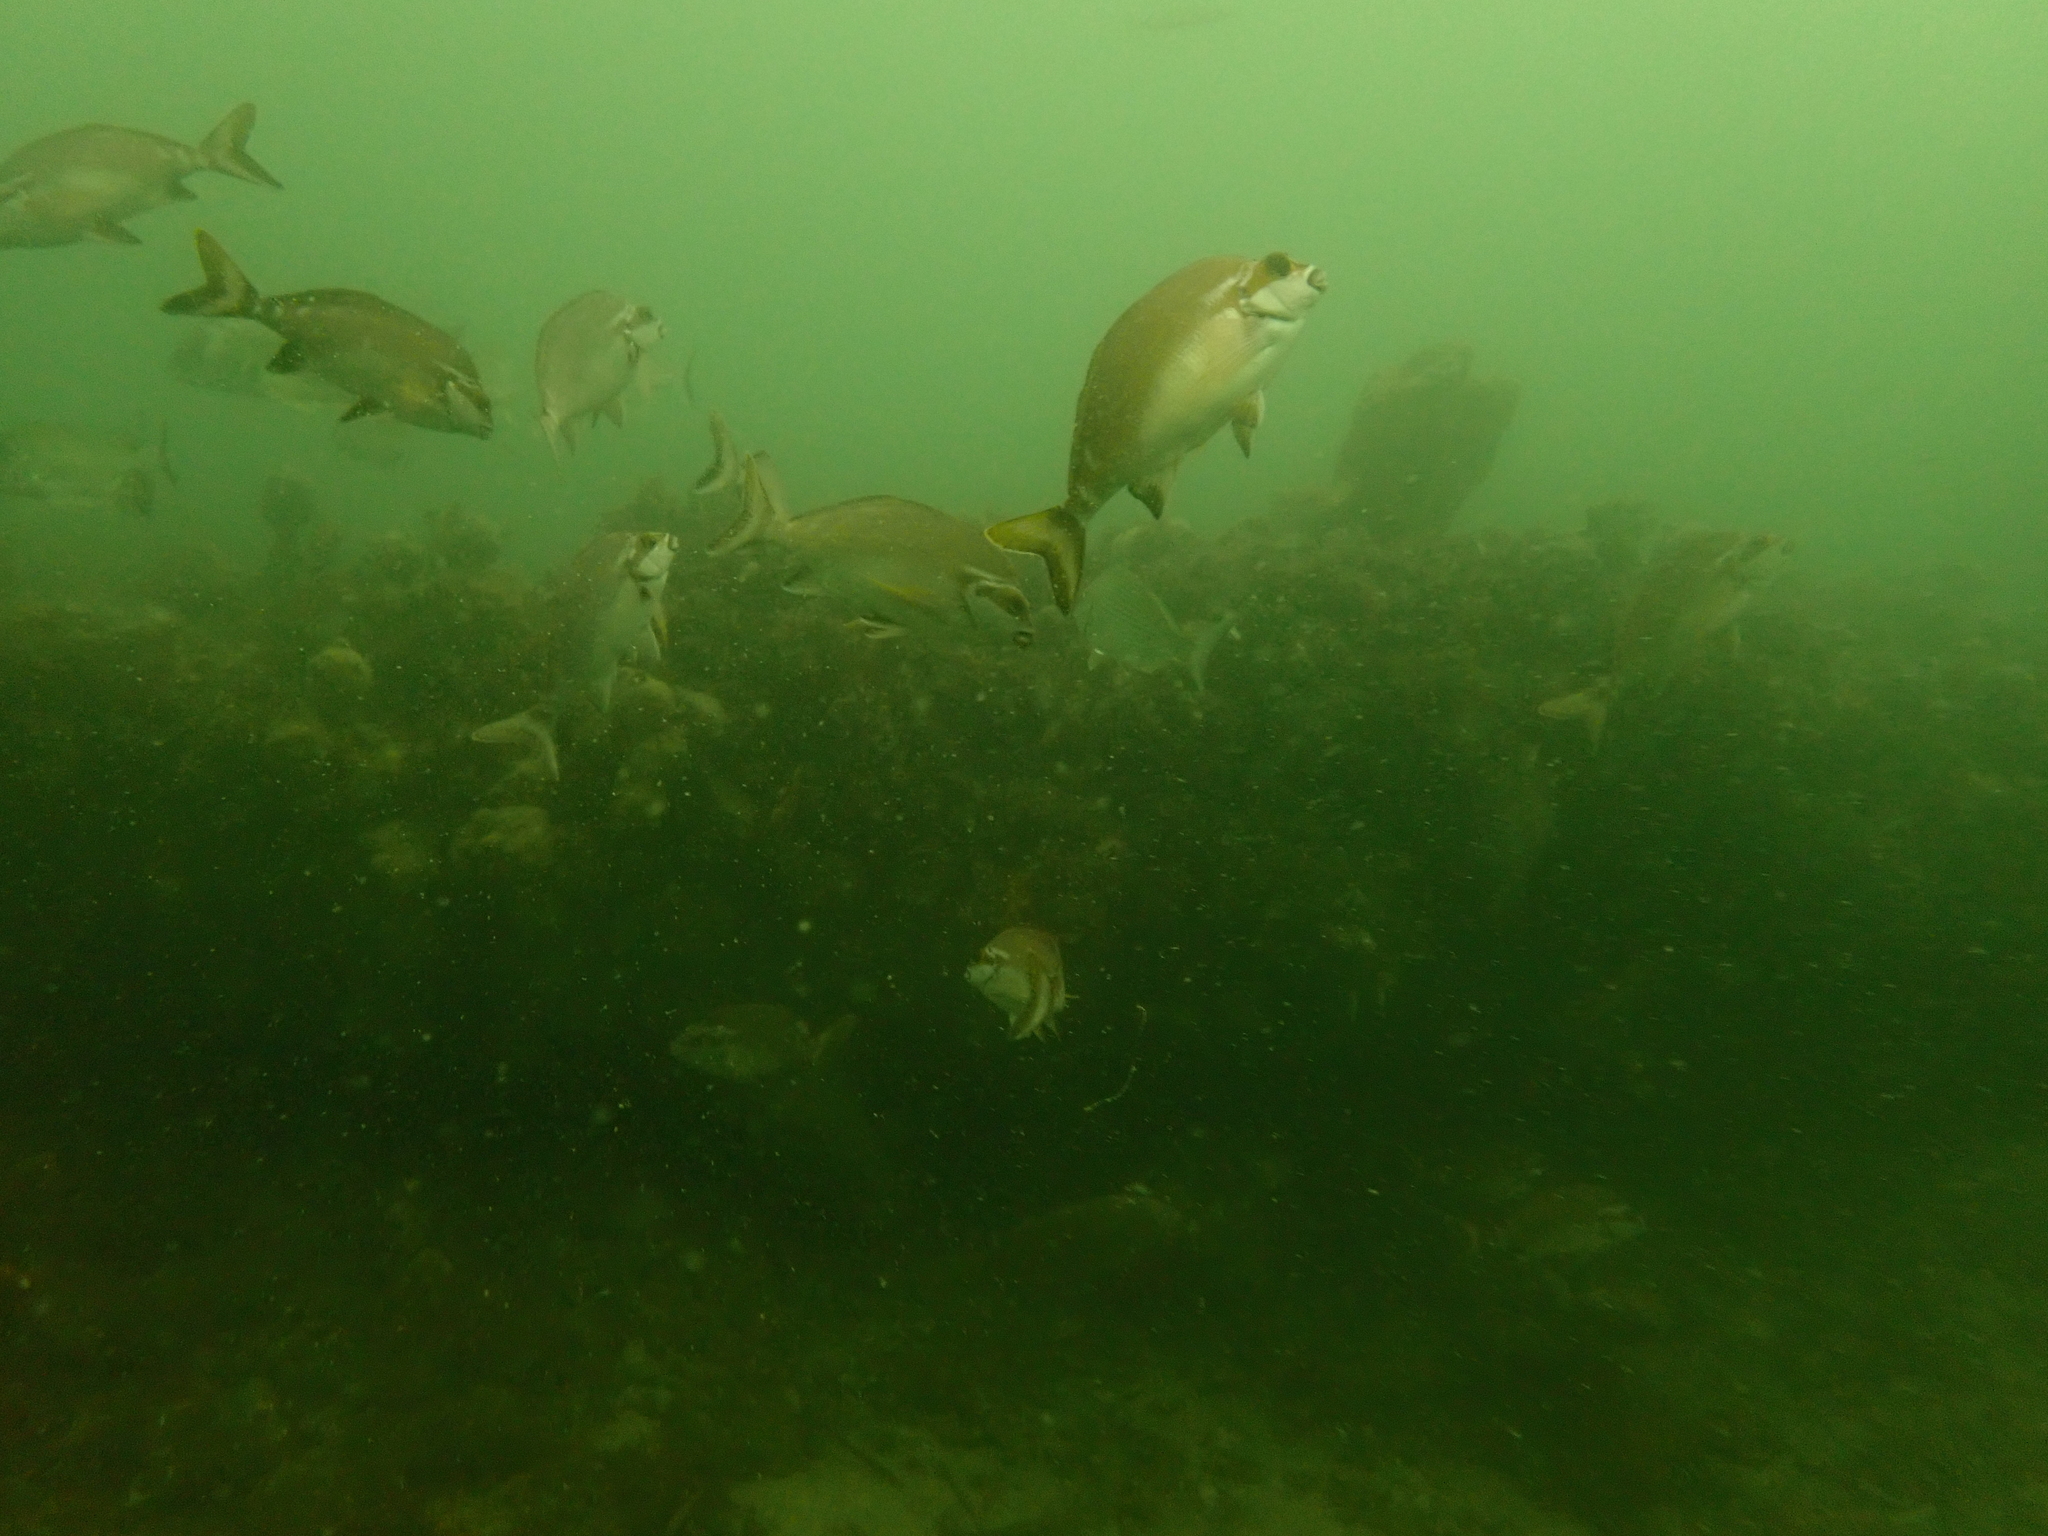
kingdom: Animalia
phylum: Chordata
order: Perciformes
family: Latridae
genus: Morwong
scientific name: Morwong fuscus
